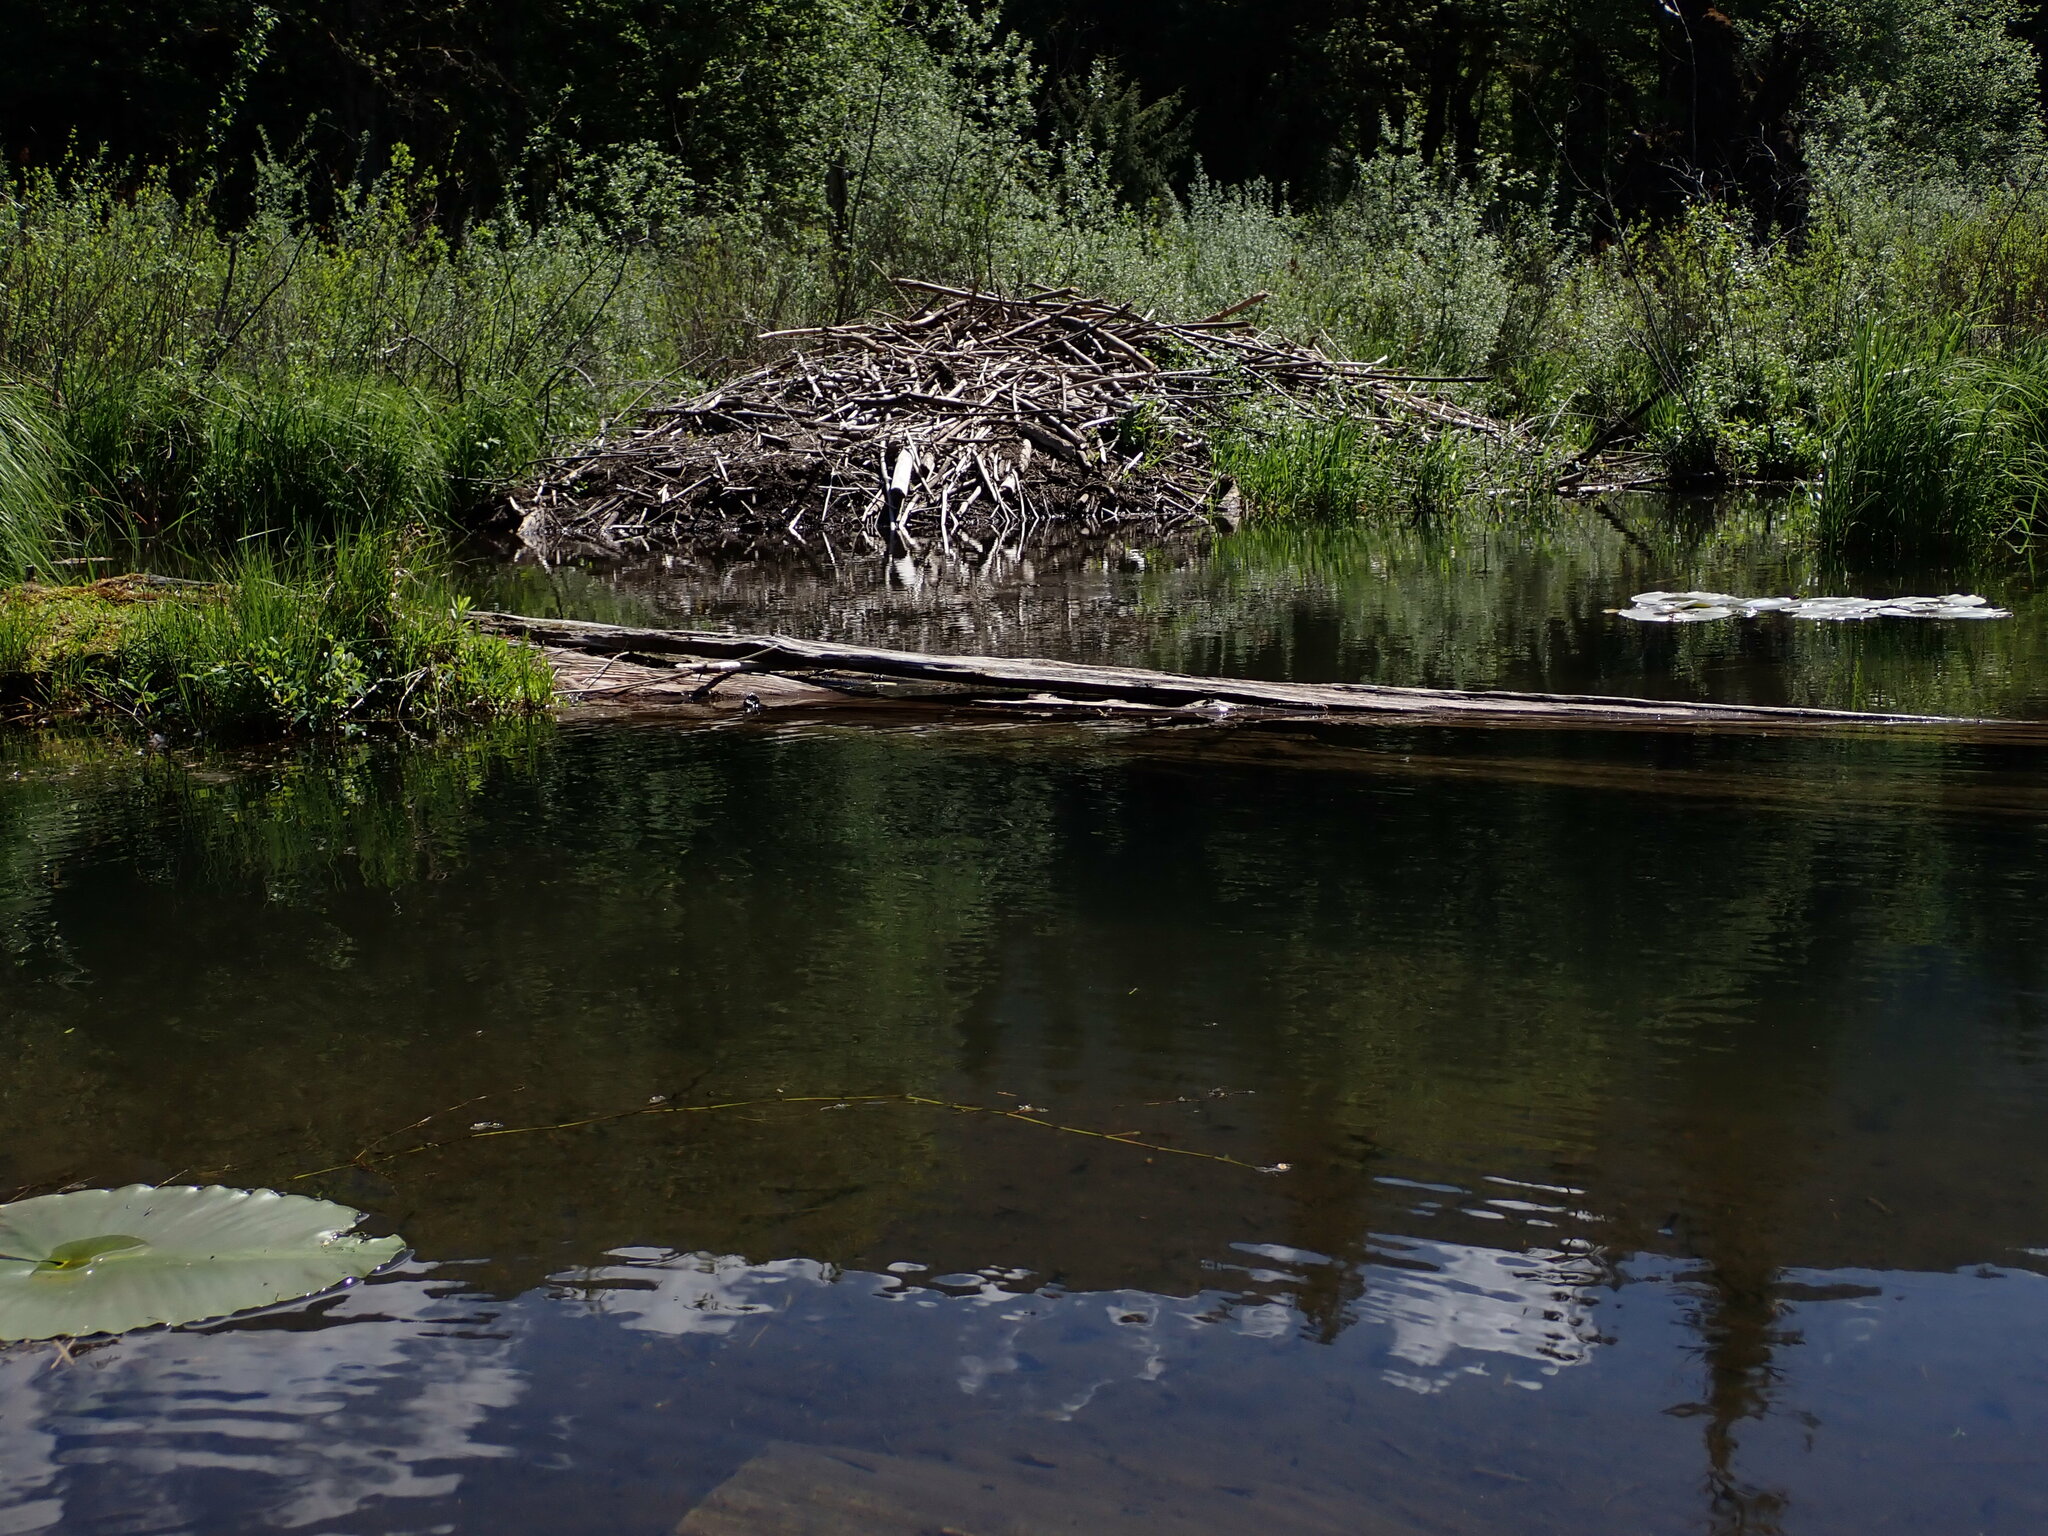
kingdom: Animalia
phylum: Chordata
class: Mammalia
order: Rodentia
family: Castoridae
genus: Castor
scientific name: Castor canadensis
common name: American beaver
